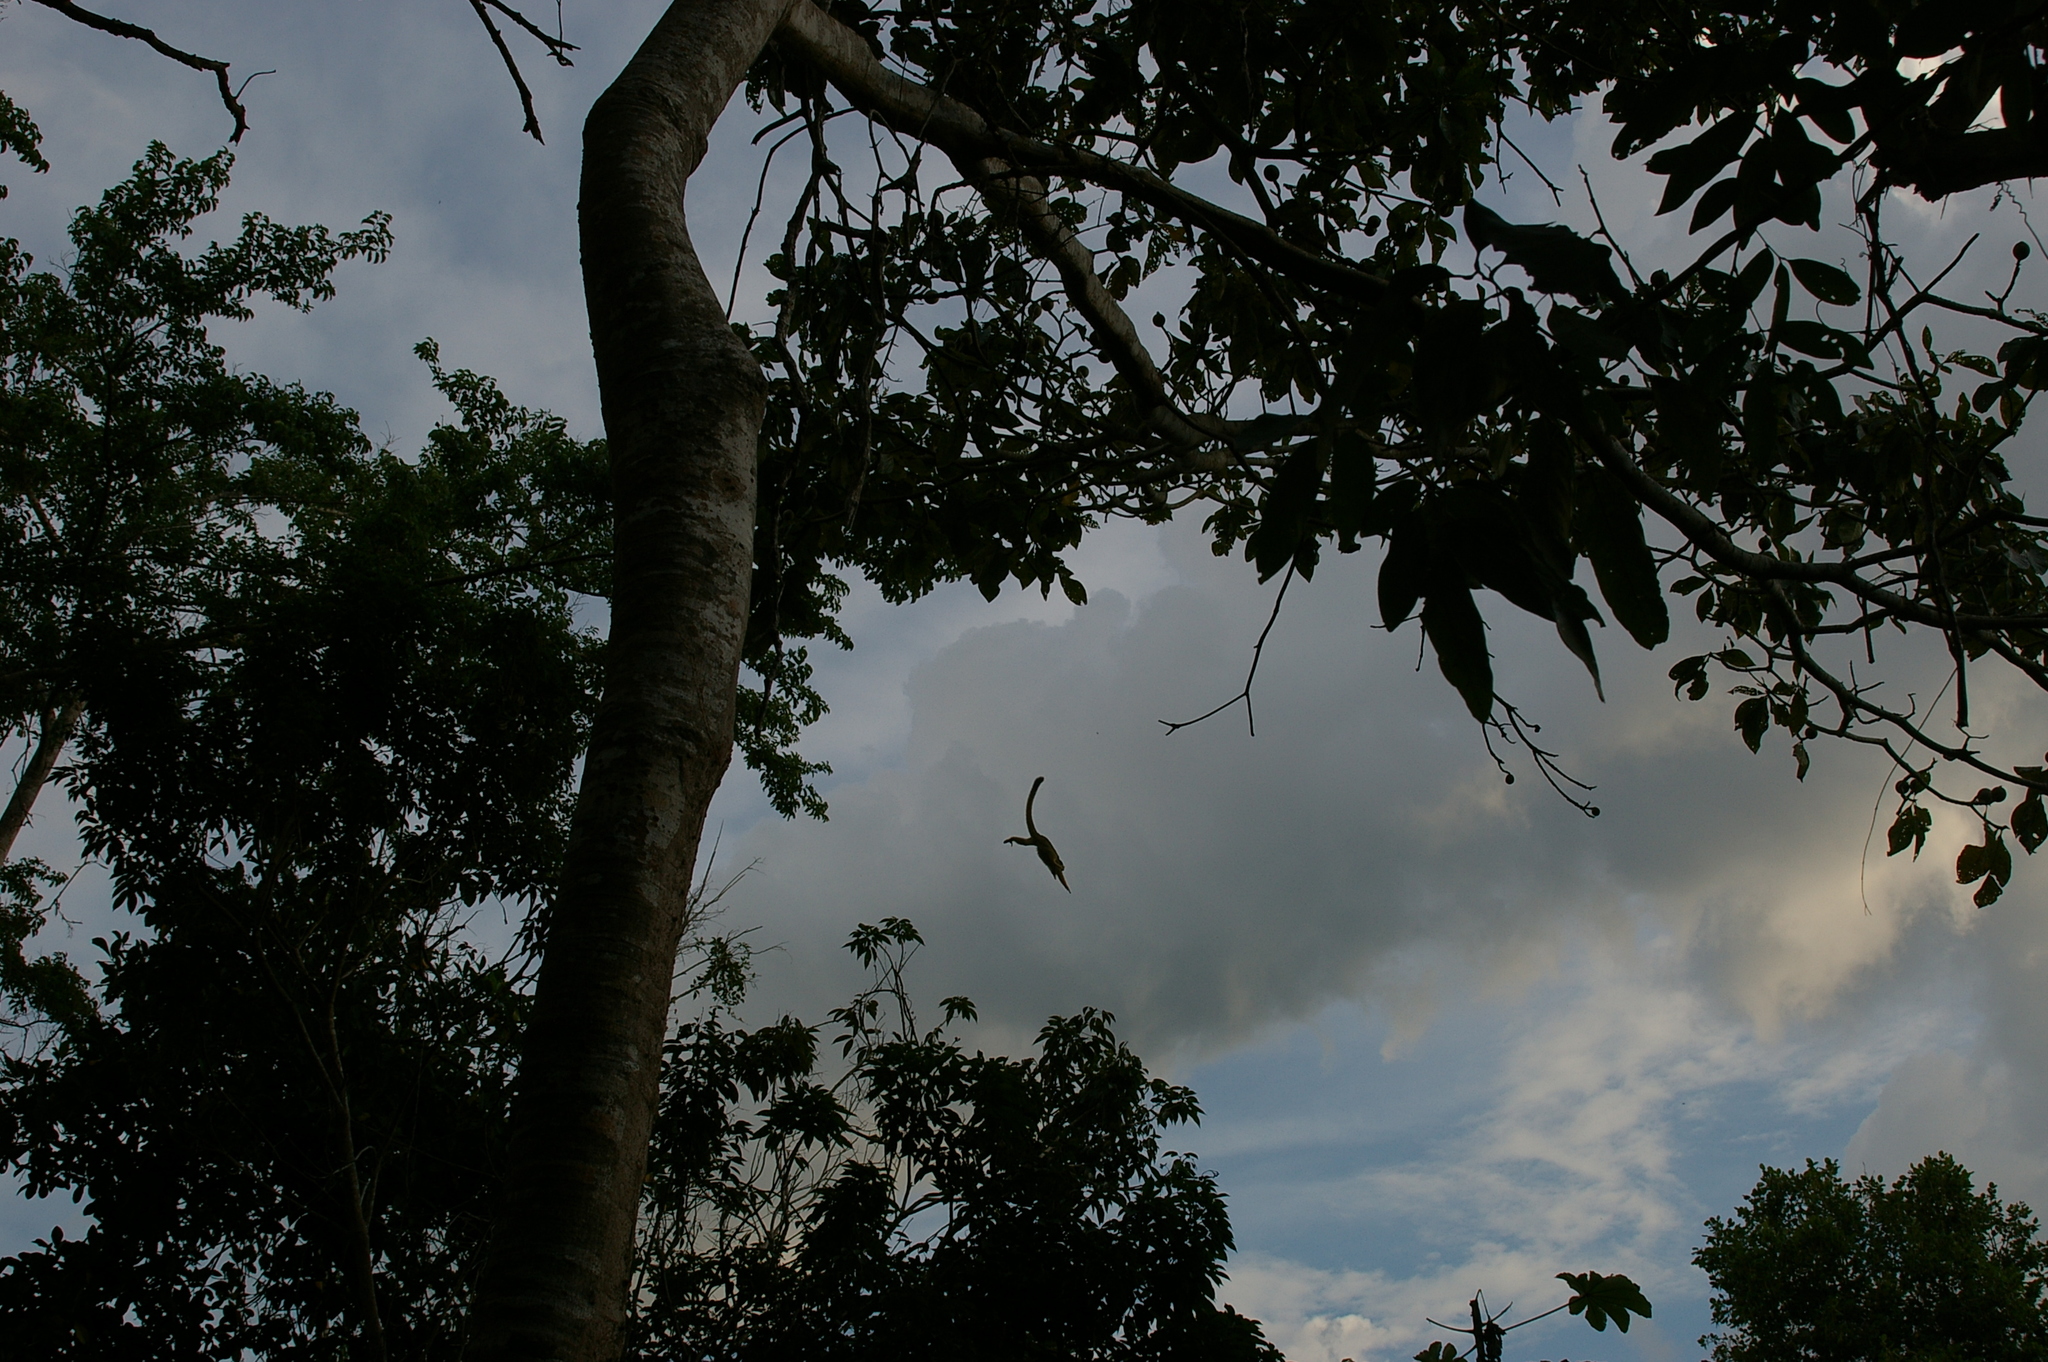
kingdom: Animalia
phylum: Chordata
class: Mammalia
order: Primates
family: Cebidae
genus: Saimiri
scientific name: Saimiri boliviensis
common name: Black-capped squirrel monkey
